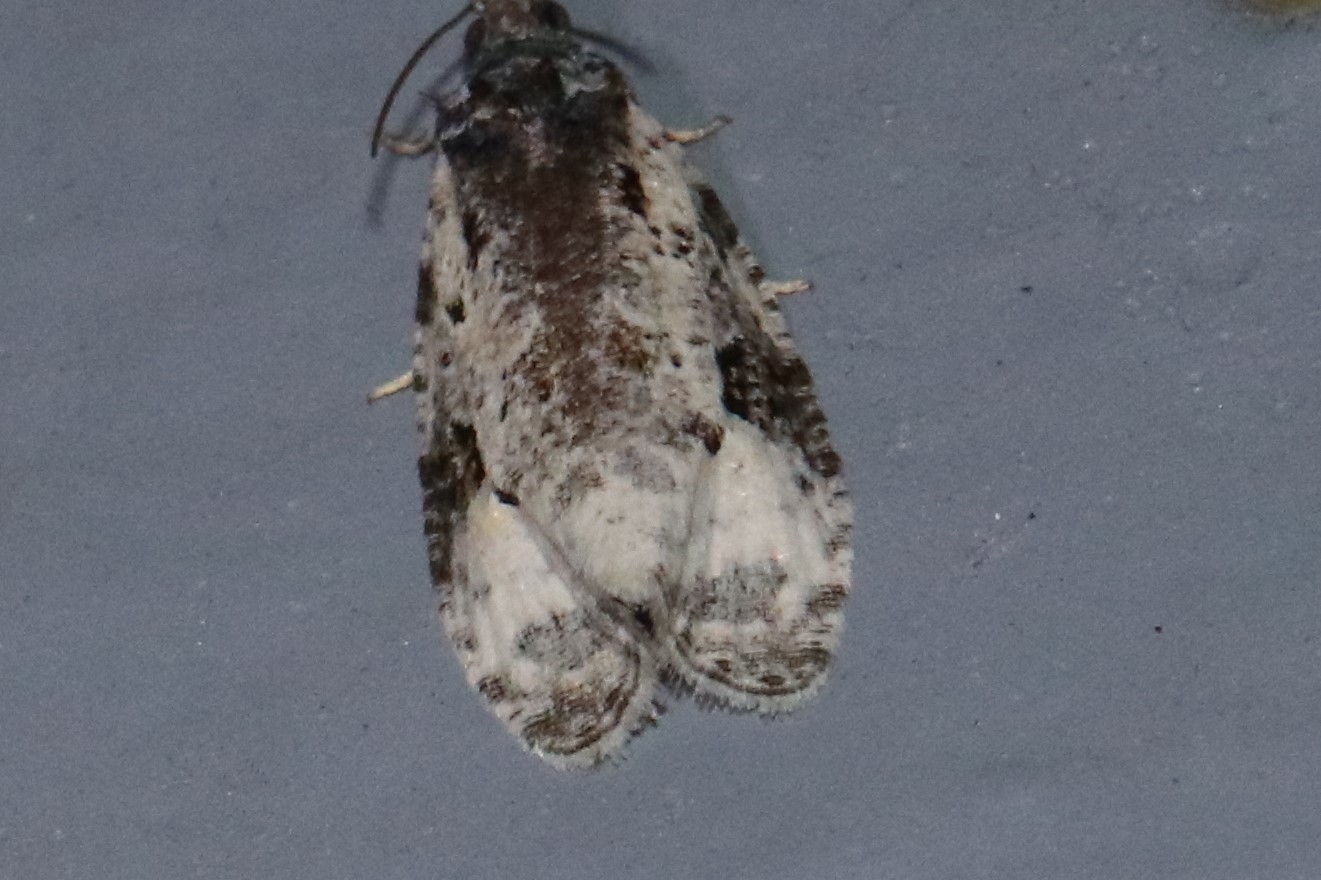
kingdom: Animalia
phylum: Arthropoda
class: Insecta
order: Lepidoptera
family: Tortricidae
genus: Apotomis
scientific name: Apotomis albeolana
